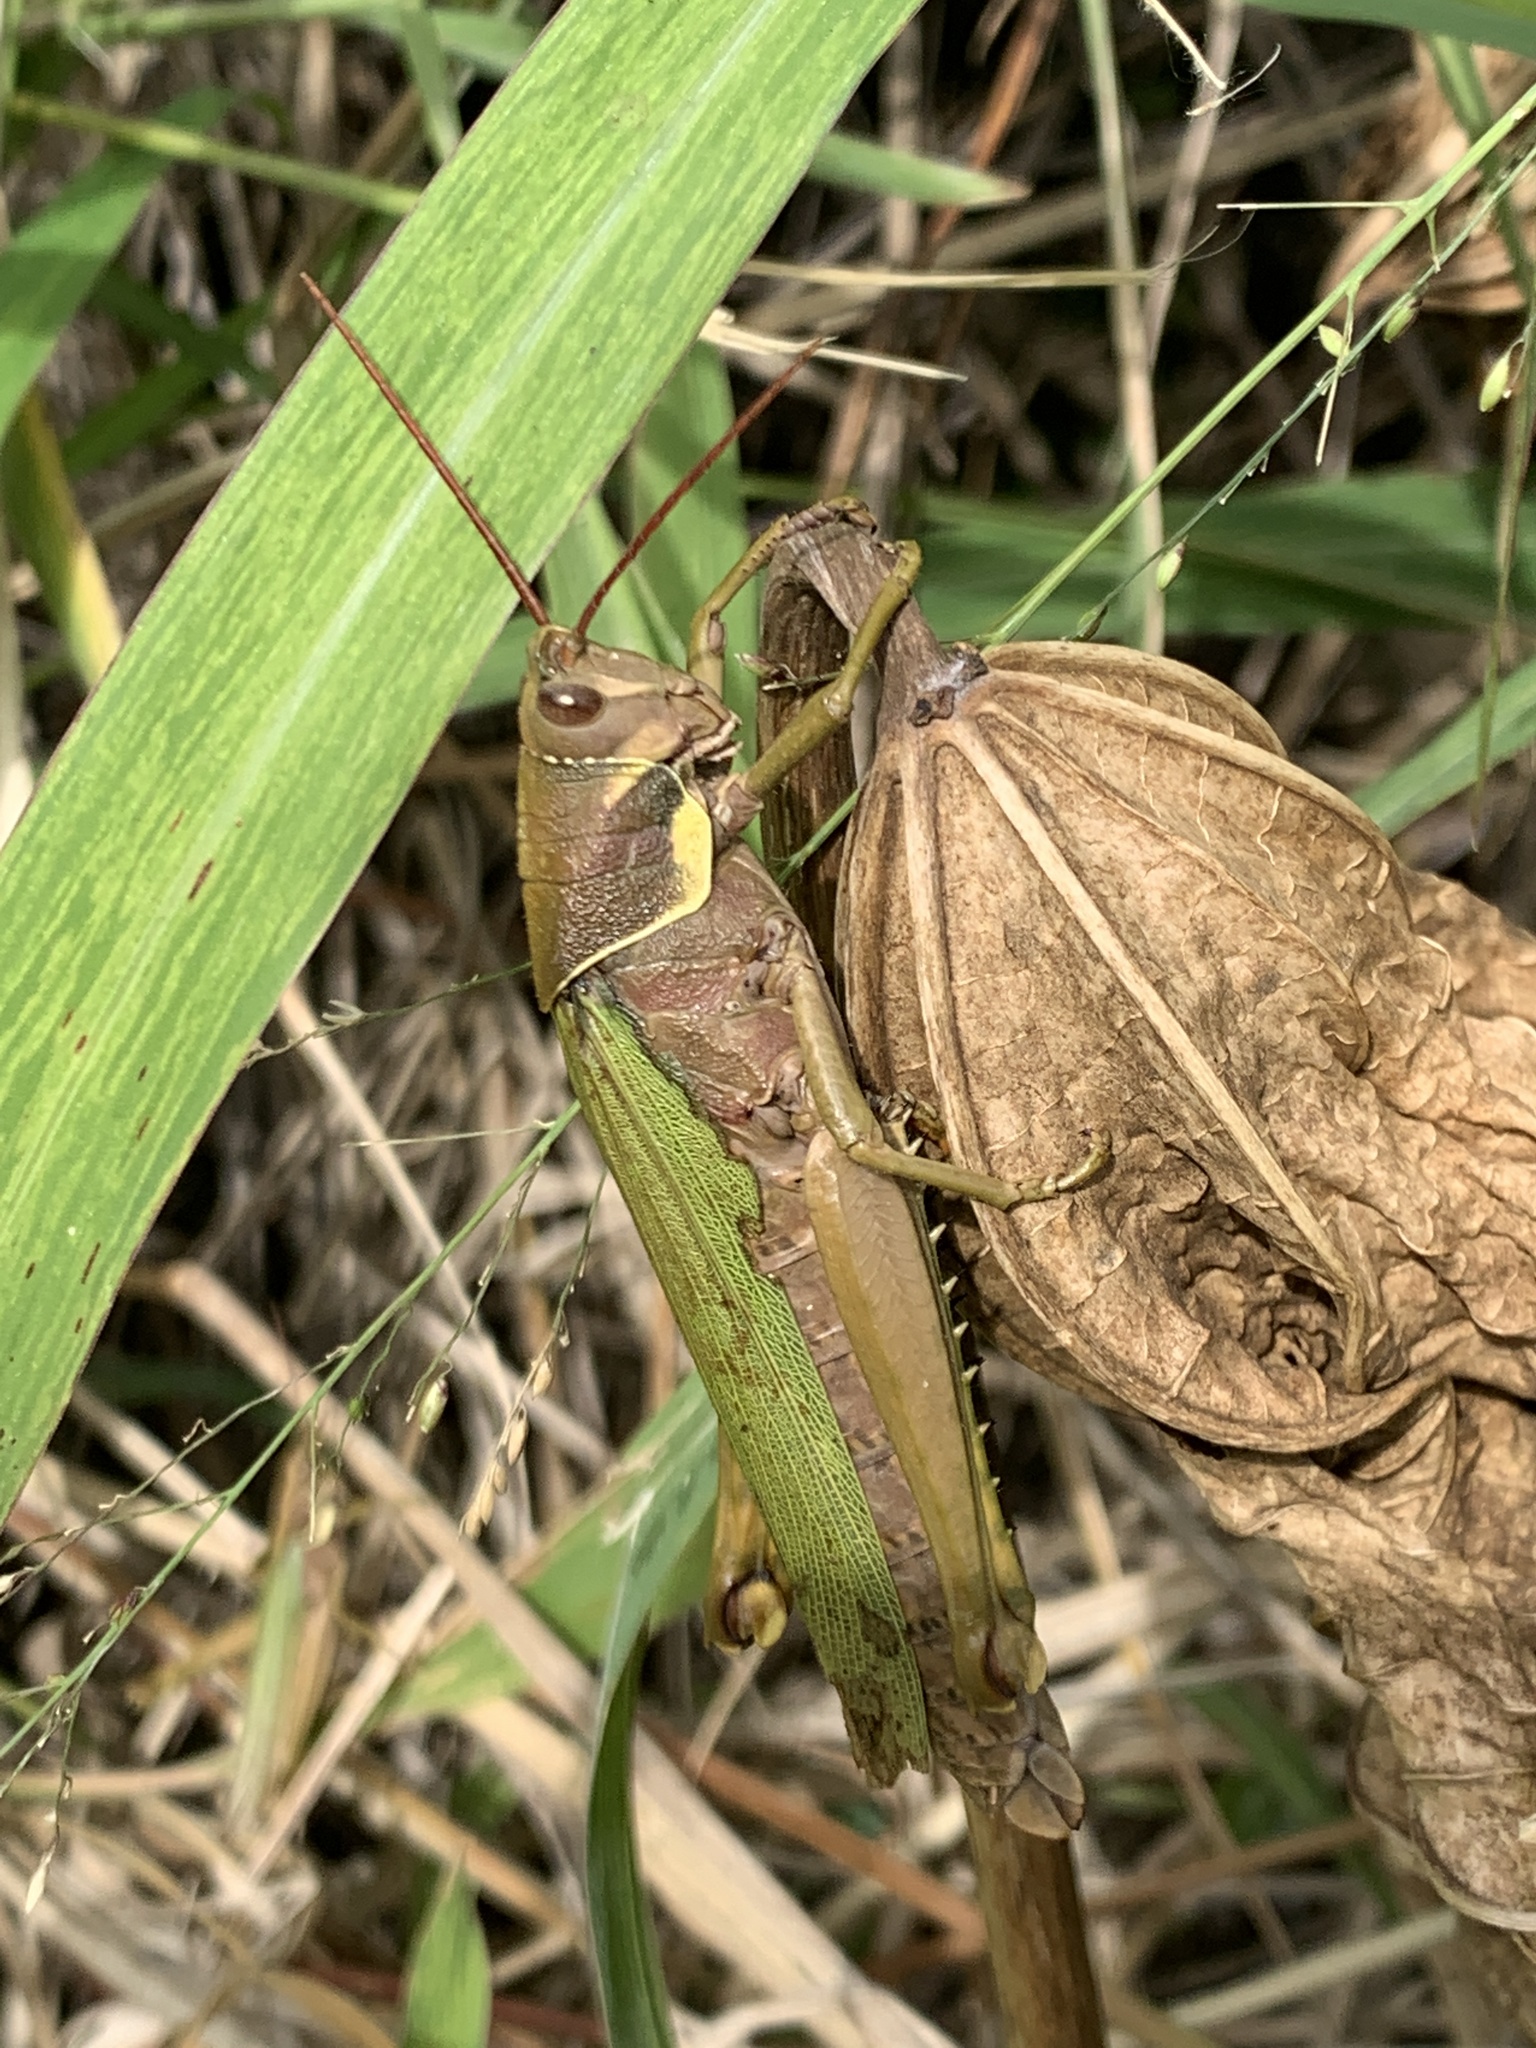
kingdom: Animalia
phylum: Arthropoda
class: Insecta
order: Orthoptera
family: Romaleidae
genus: Coryacris
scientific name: Coryacris angustipennis
